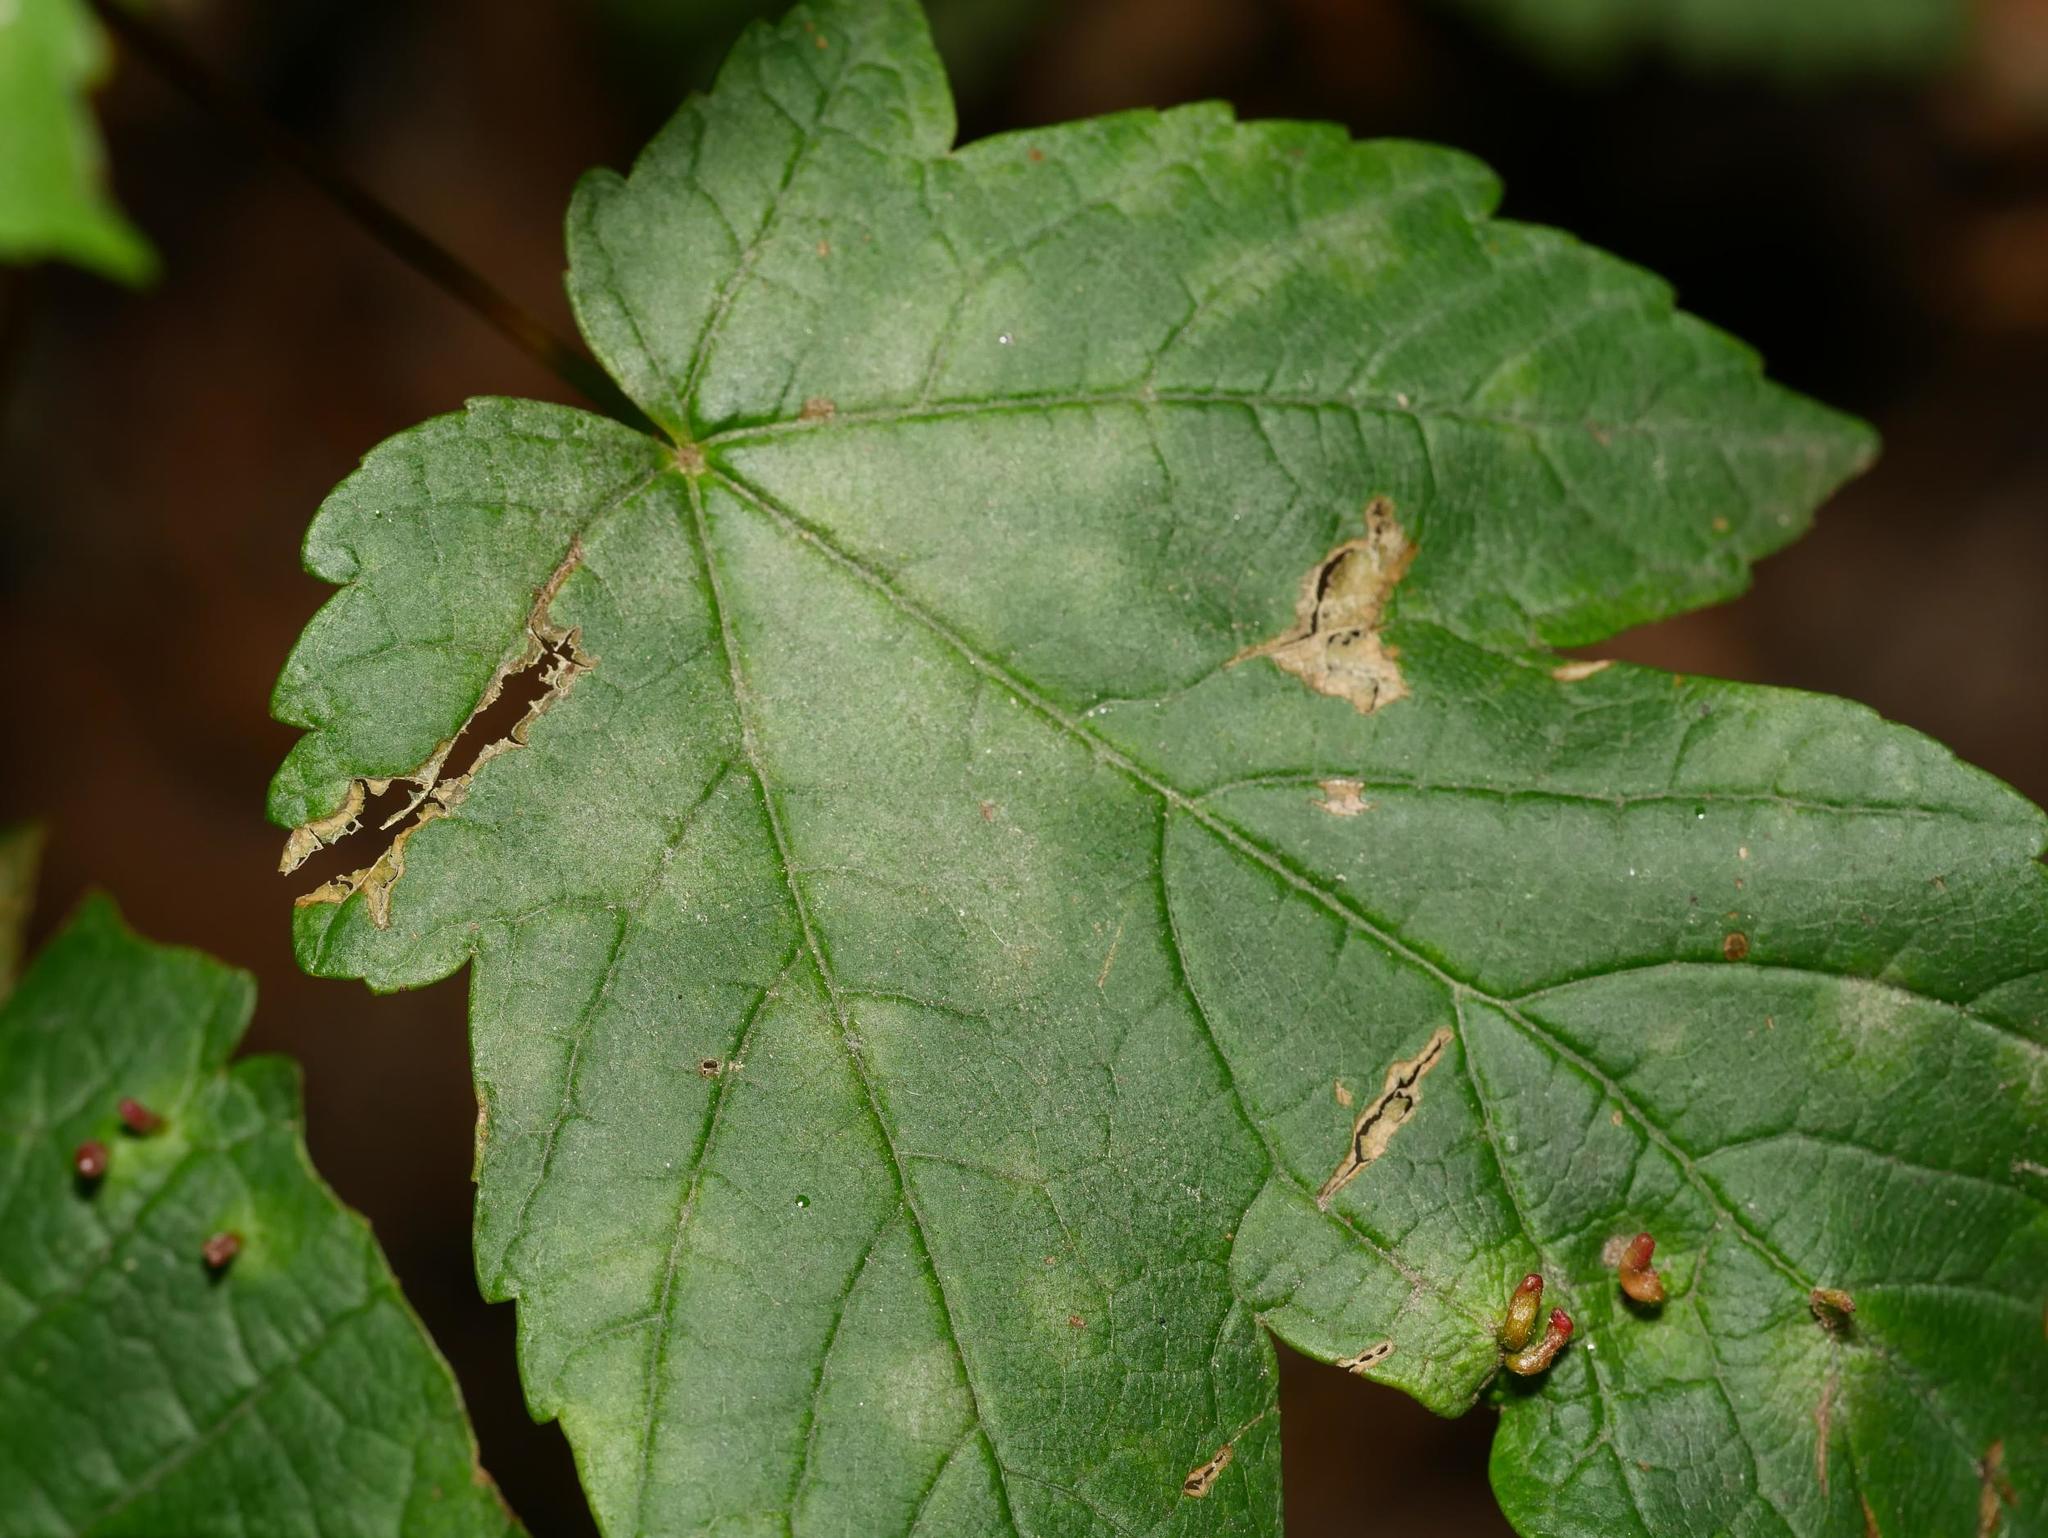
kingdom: Fungi
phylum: Ascomycota
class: Leotiomycetes
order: Helotiales
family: Erysiphaceae
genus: Sawadaea
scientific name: Sawadaea bicornis
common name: Maple mildew
